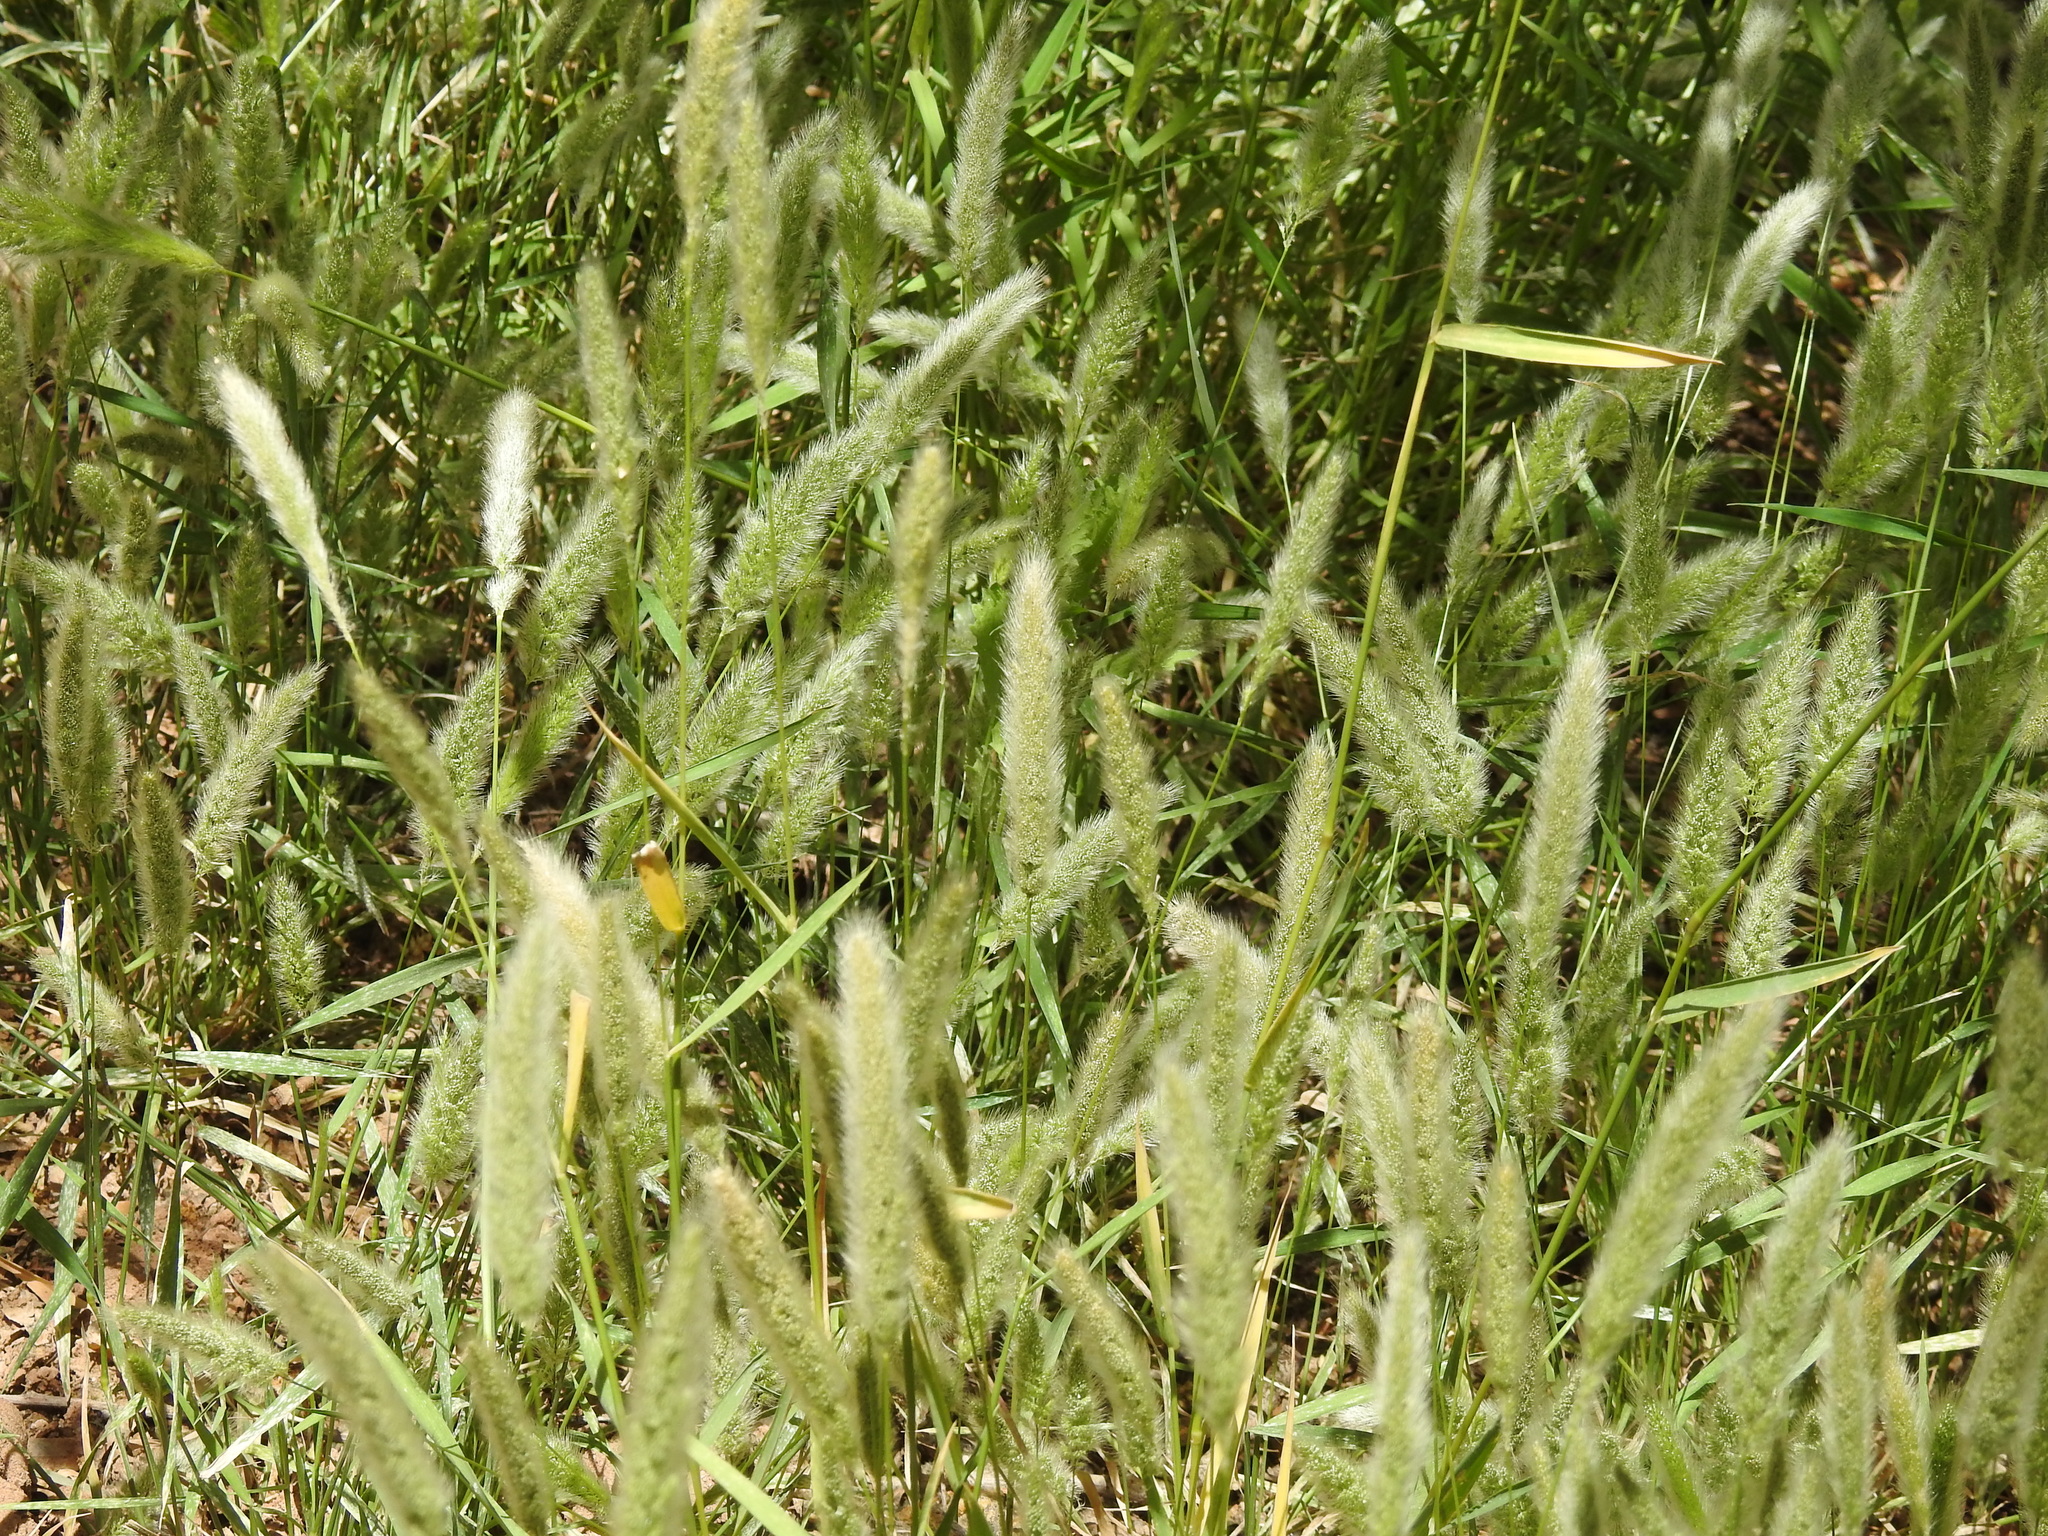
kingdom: Plantae
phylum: Tracheophyta
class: Liliopsida
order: Poales
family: Poaceae
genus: Polypogon
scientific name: Polypogon monspeliensis
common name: Annual rabbitsfoot grass
